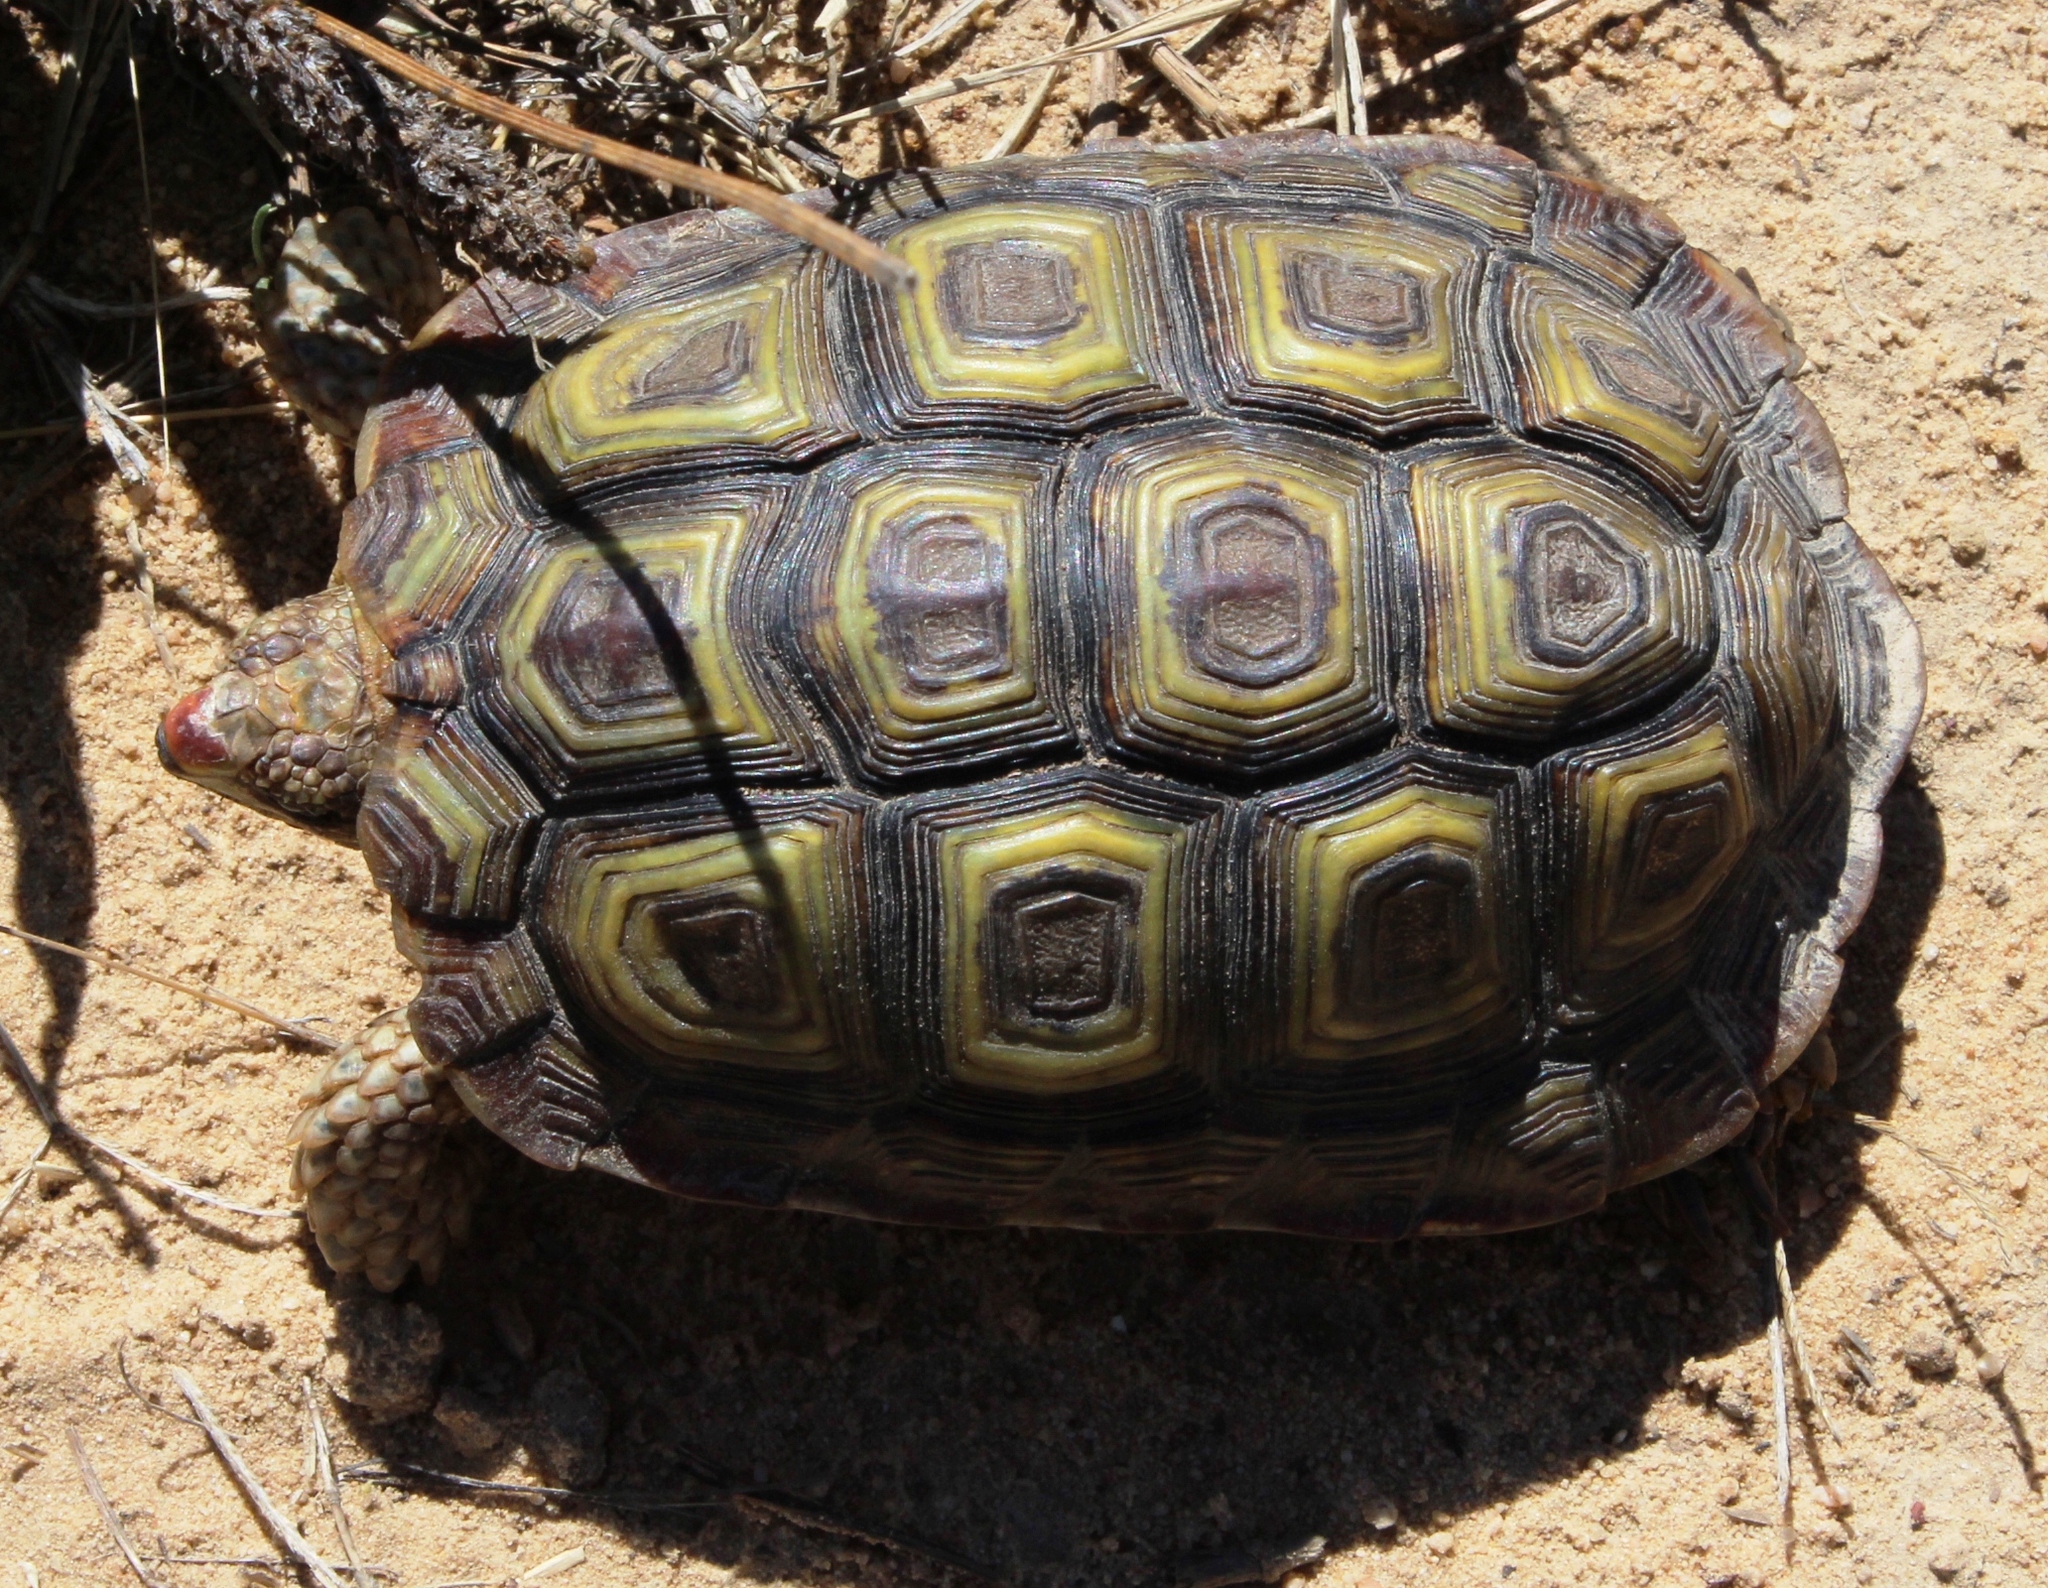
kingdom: Animalia
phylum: Chordata
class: Testudines
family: Testudinidae
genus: Homopus
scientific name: Homopus areolatus
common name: Parrot-beaked tortoise
